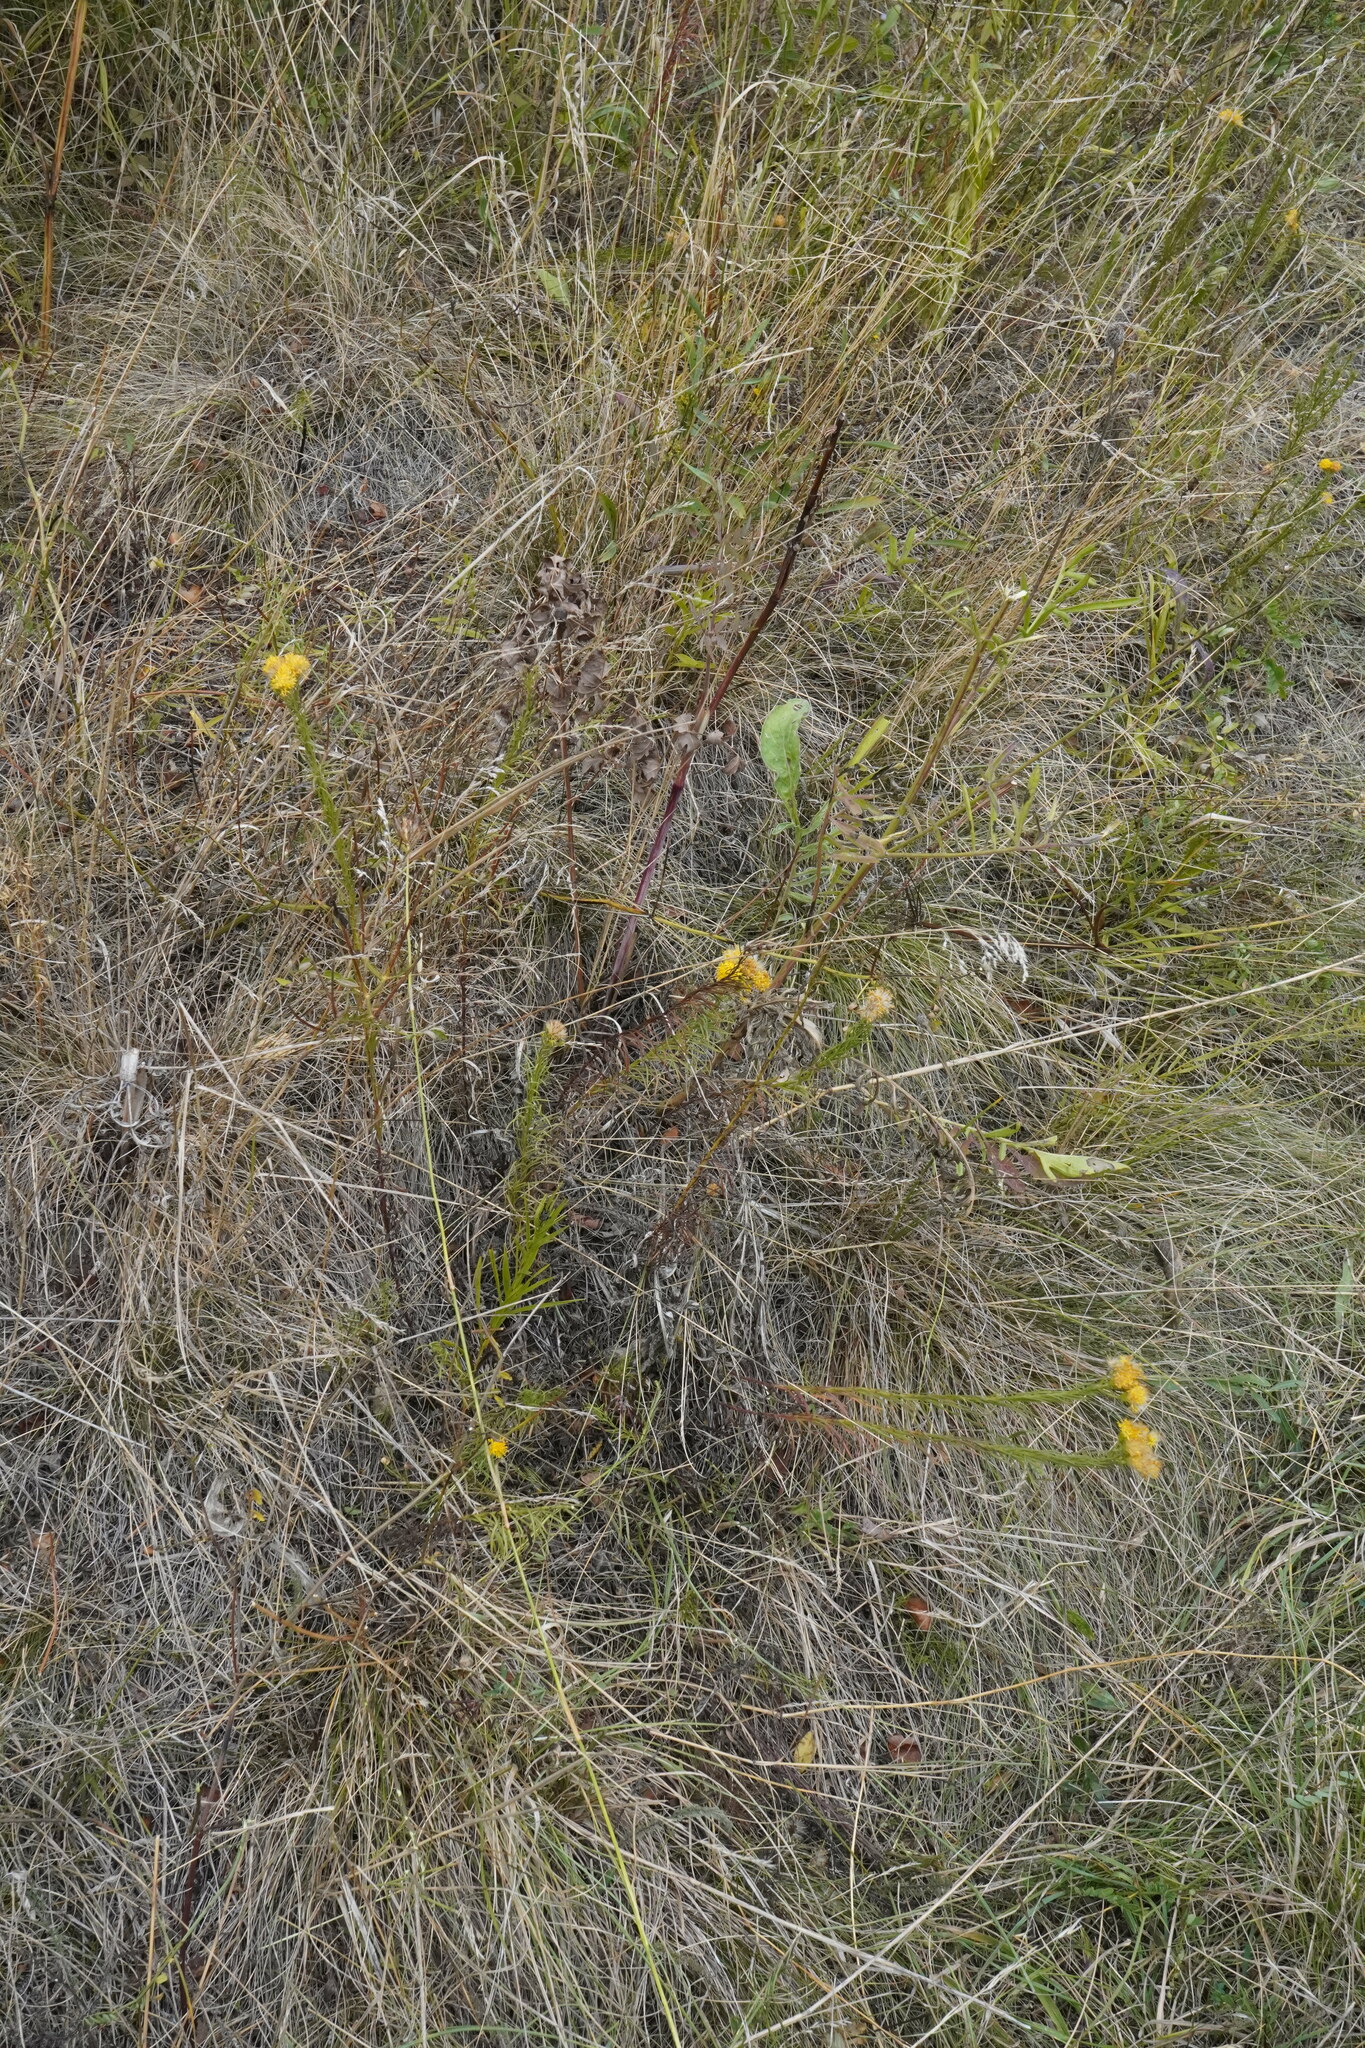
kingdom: Plantae
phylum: Tracheophyta
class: Magnoliopsida
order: Asterales
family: Asteraceae
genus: Galatella
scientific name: Galatella linosyris
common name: Goldilocks aster
